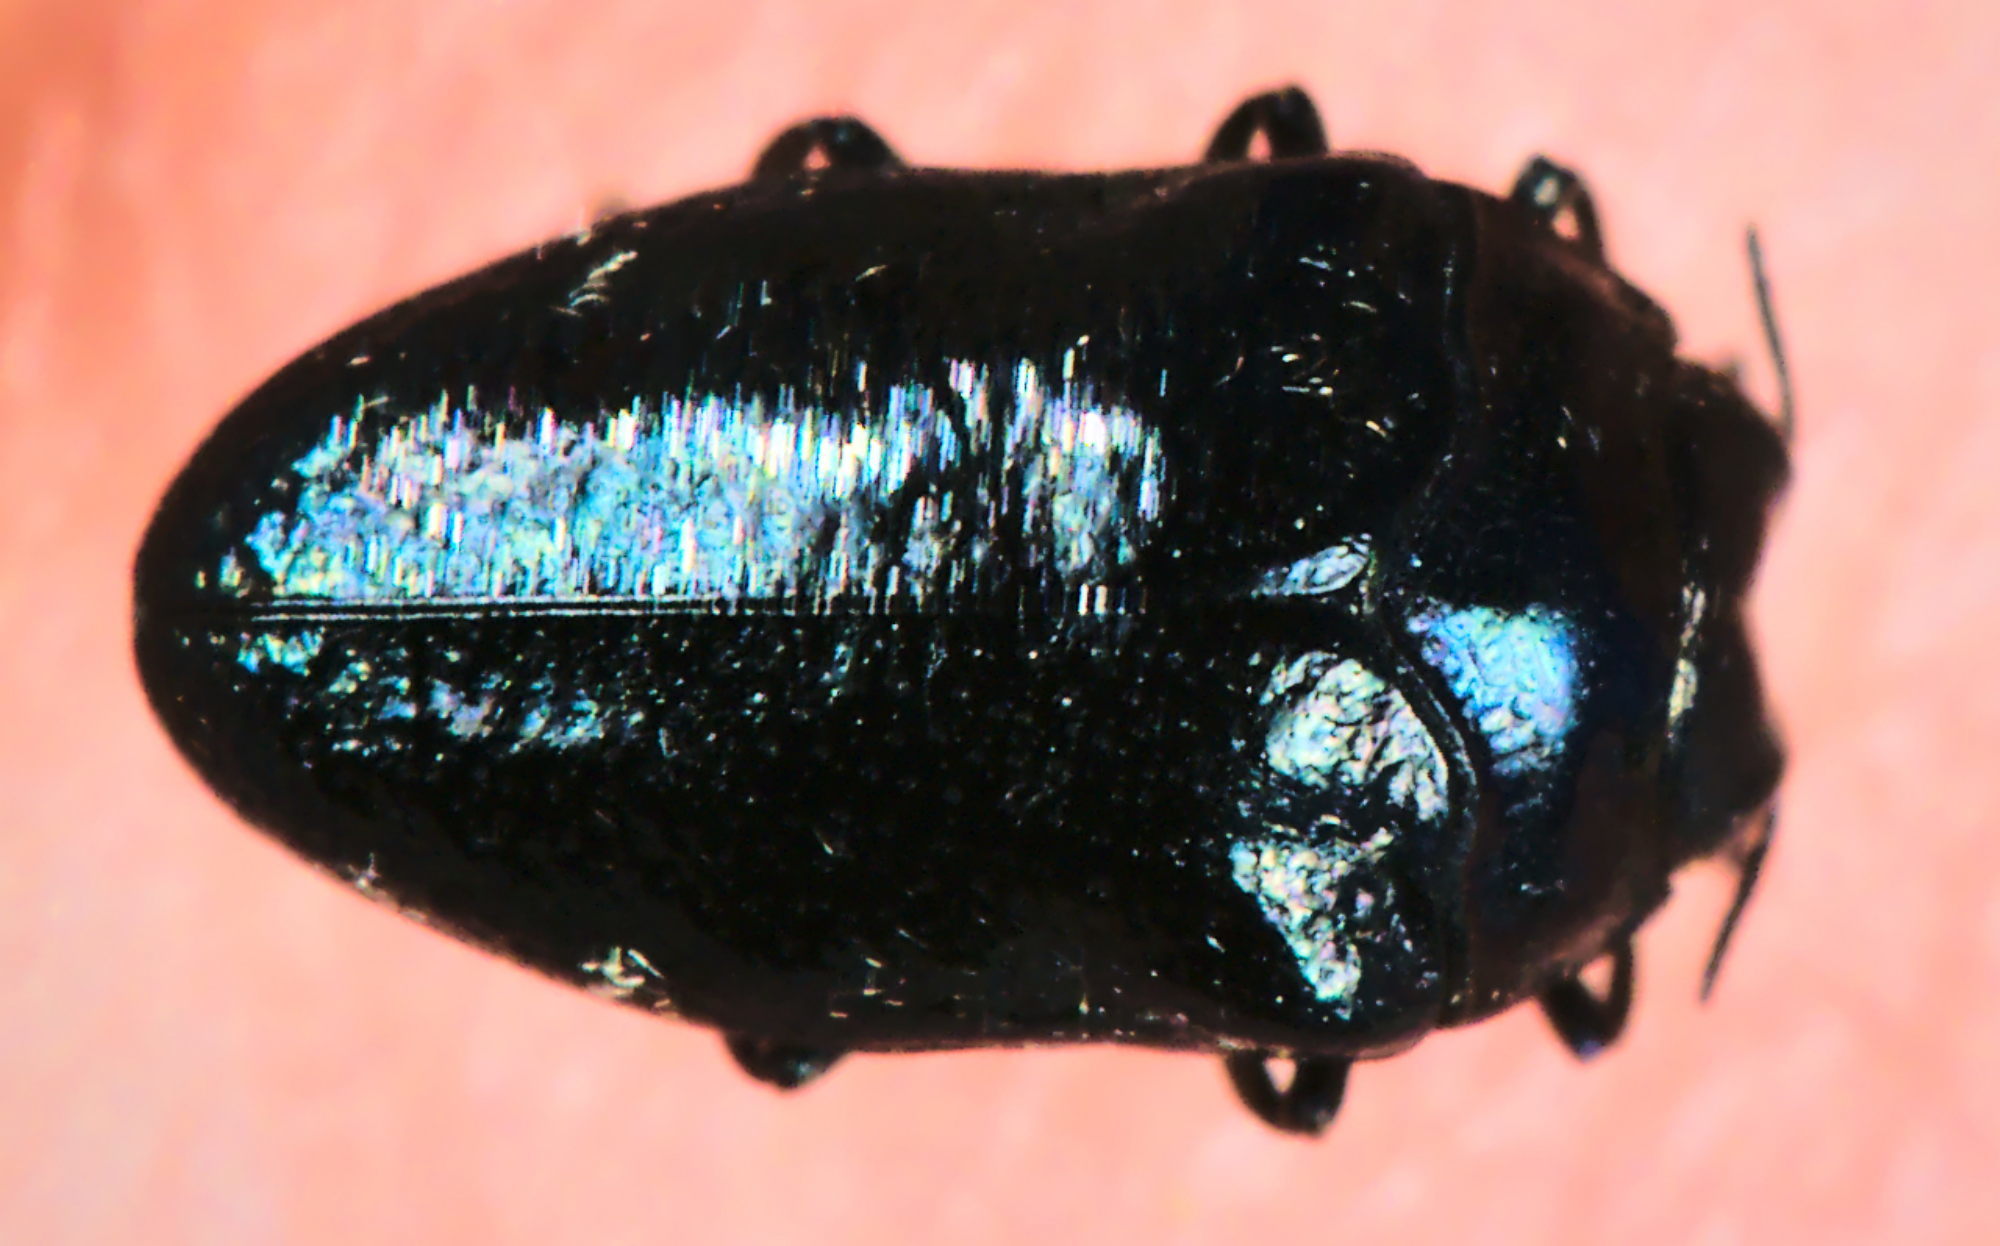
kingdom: Animalia
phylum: Arthropoda
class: Insecta
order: Coleoptera
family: Buprestidae
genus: Trachys
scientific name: Trachys minutus
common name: Metallic wood-boring beetle
